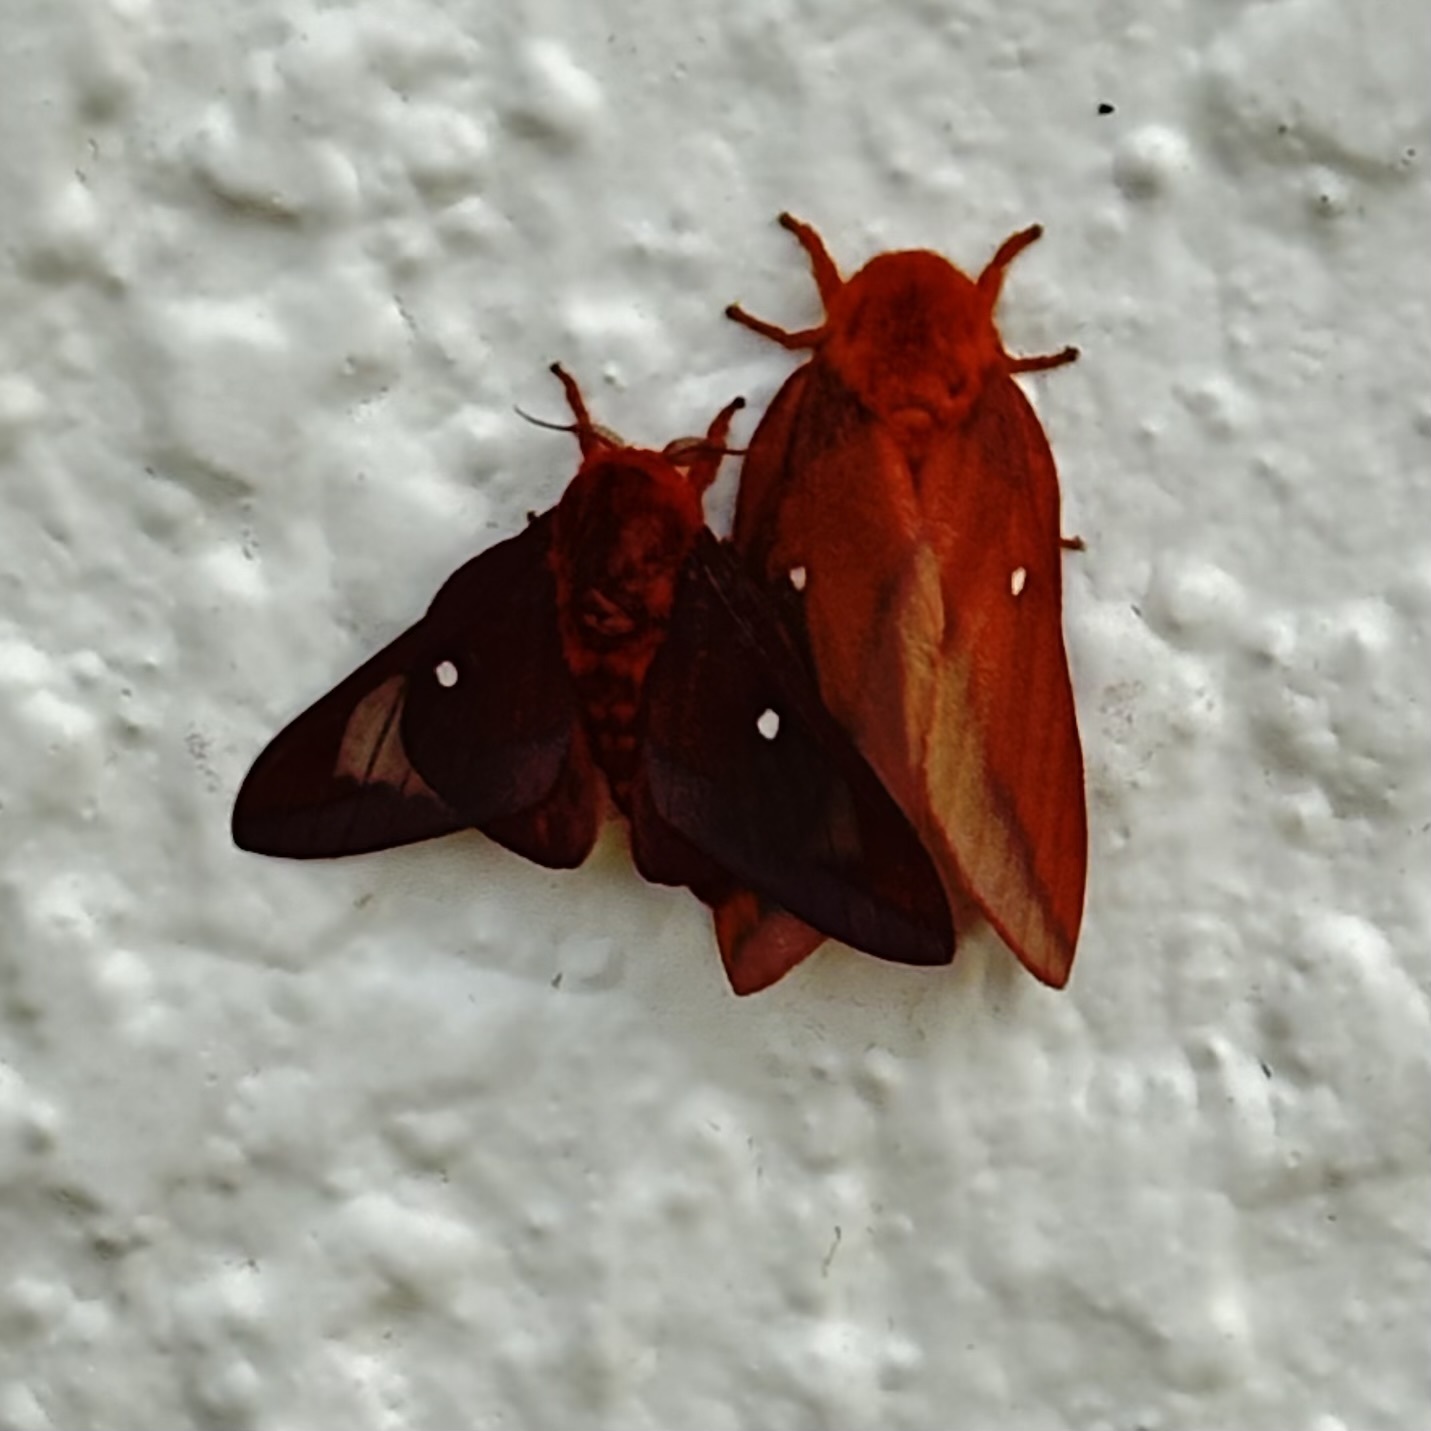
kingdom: Animalia
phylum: Arthropoda
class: Insecta
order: Lepidoptera
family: Saturniidae
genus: Anisota
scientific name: Anisota virginiensis
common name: Pink striped oakworm moth
